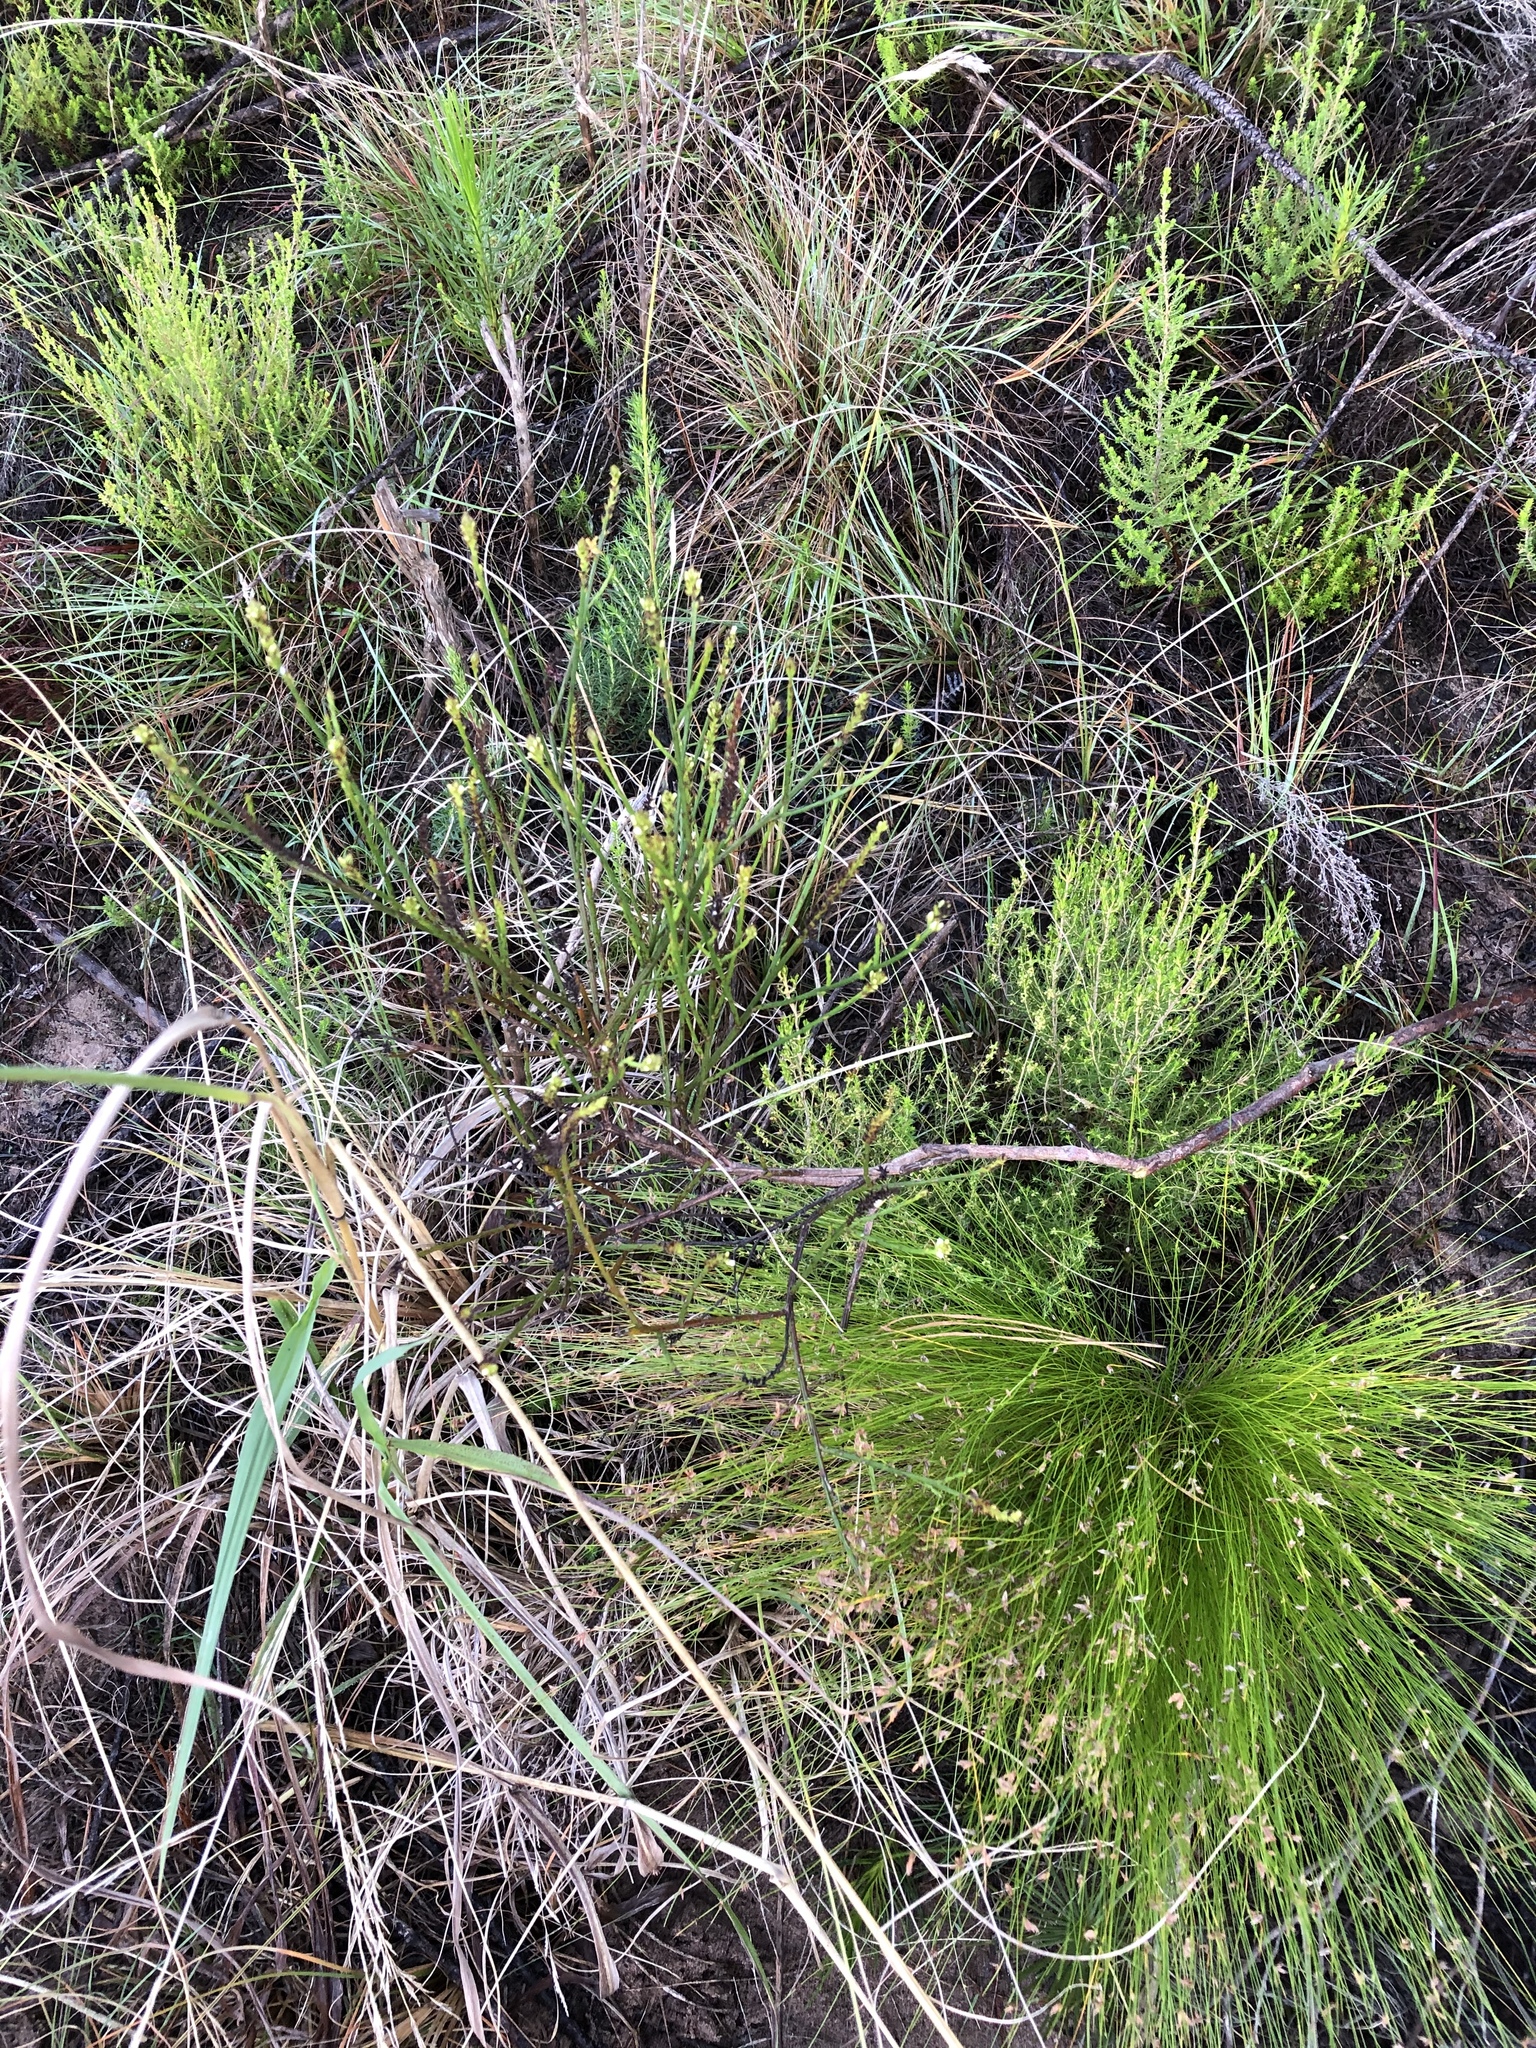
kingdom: Plantae
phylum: Tracheophyta
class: Magnoliopsida
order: Santalales
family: Thesiaceae
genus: Thesium
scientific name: Thesium spicatum
